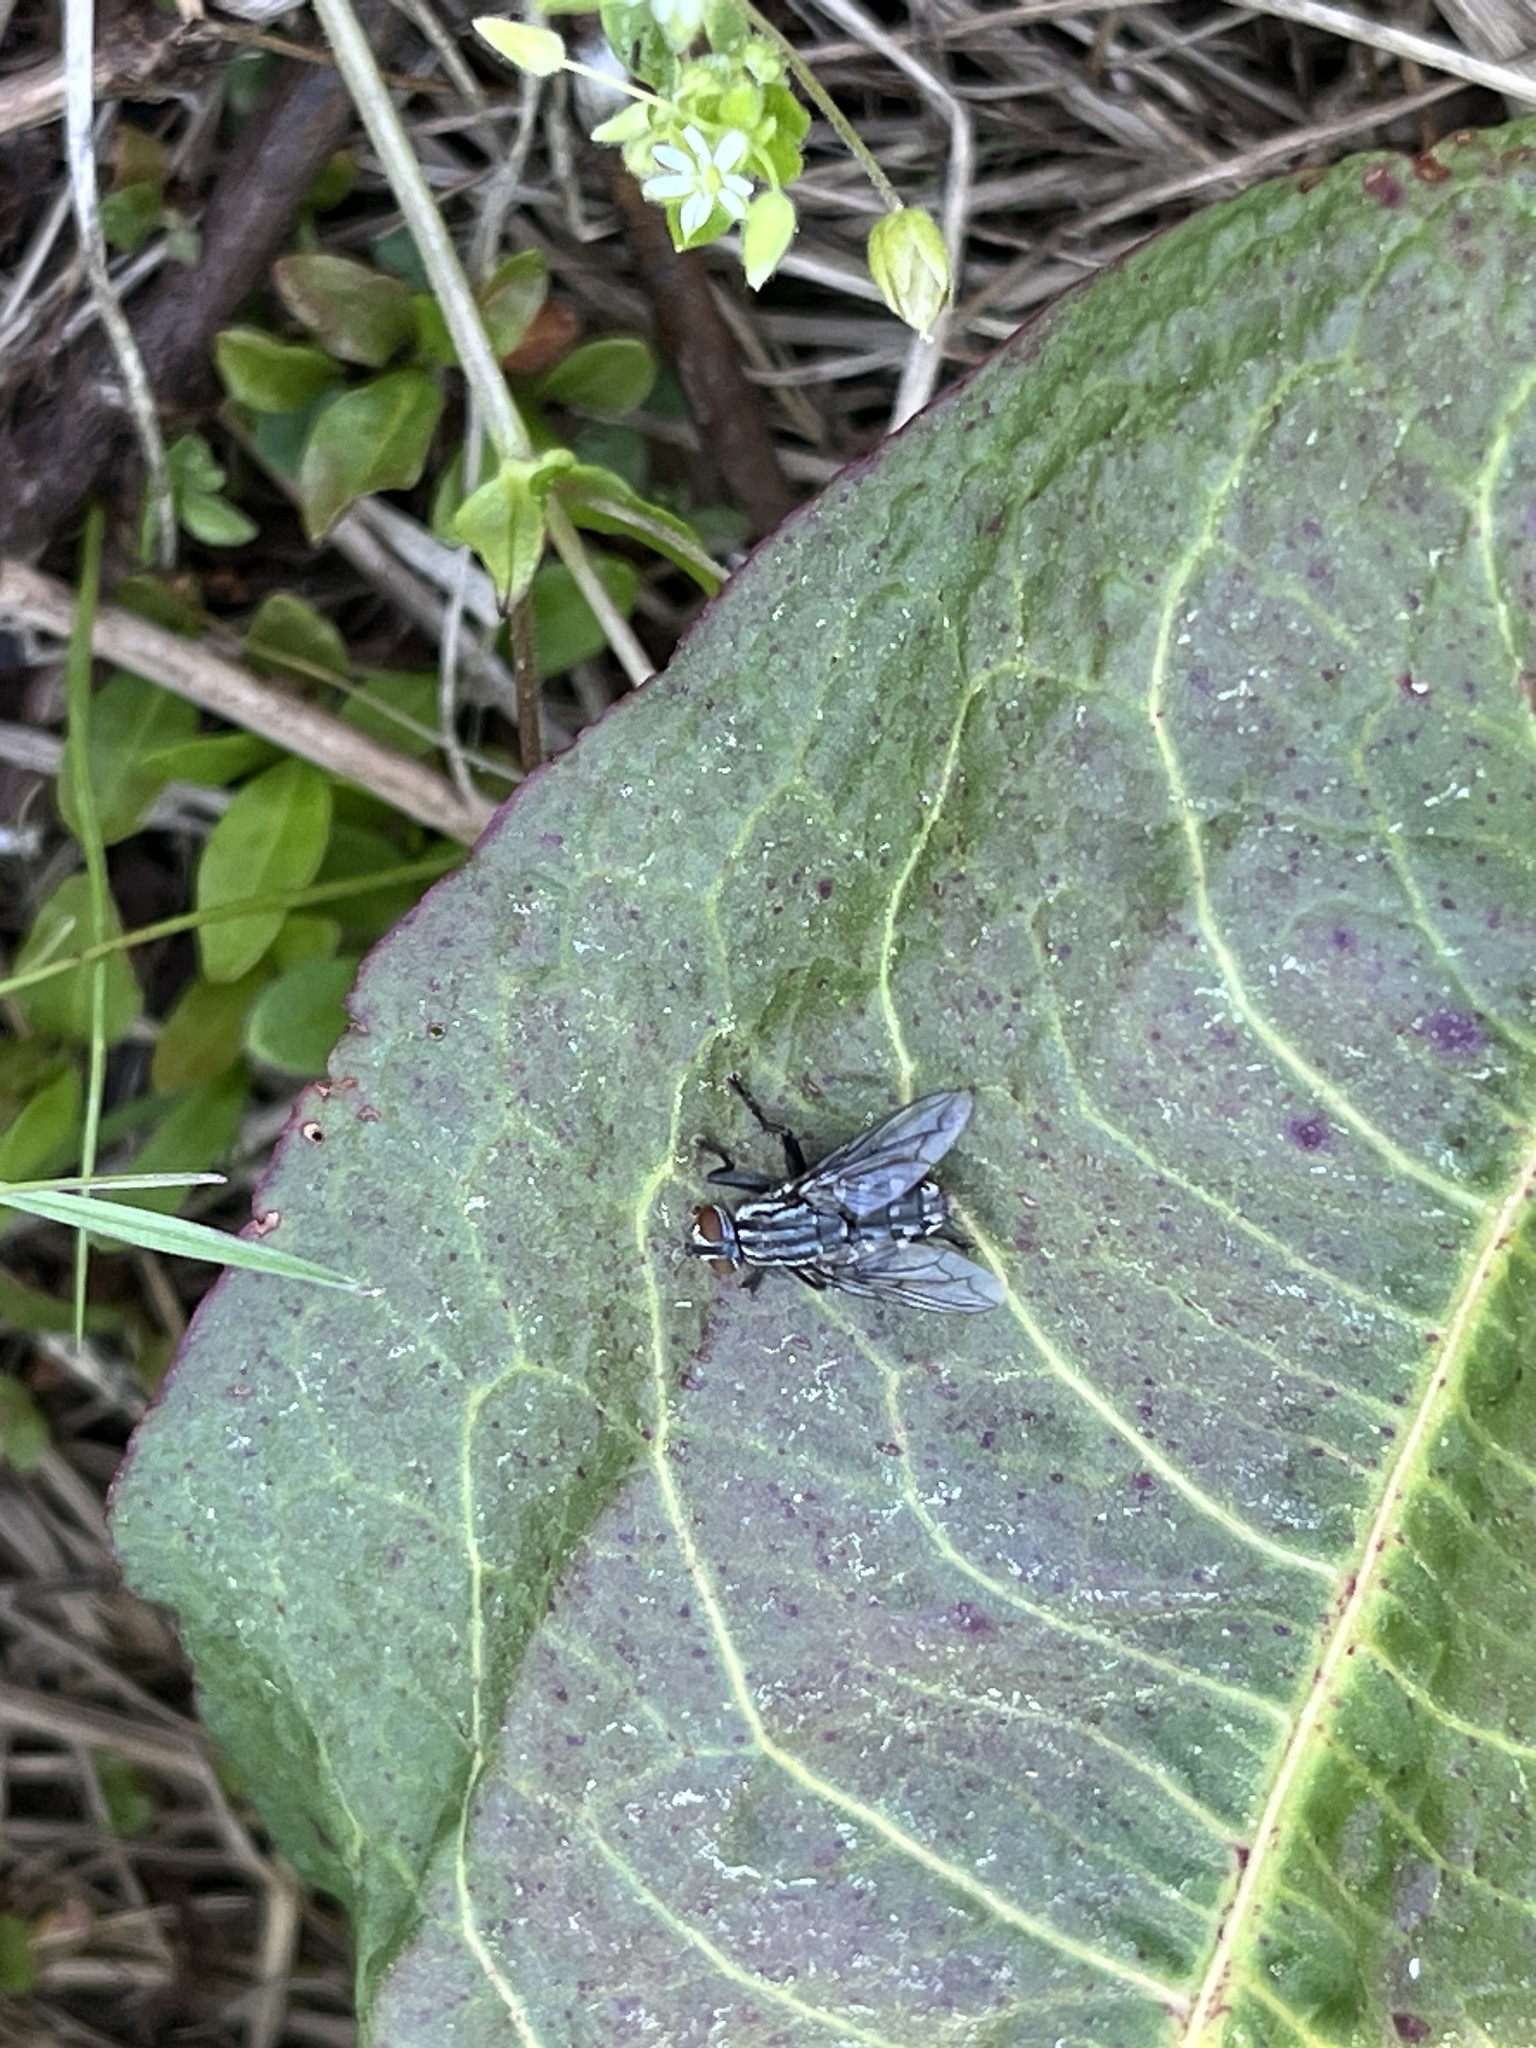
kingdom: Animalia
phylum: Arthropoda
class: Insecta
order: Diptera
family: Sarcophagidae
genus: Sarcophaga
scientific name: Sarcophaga
